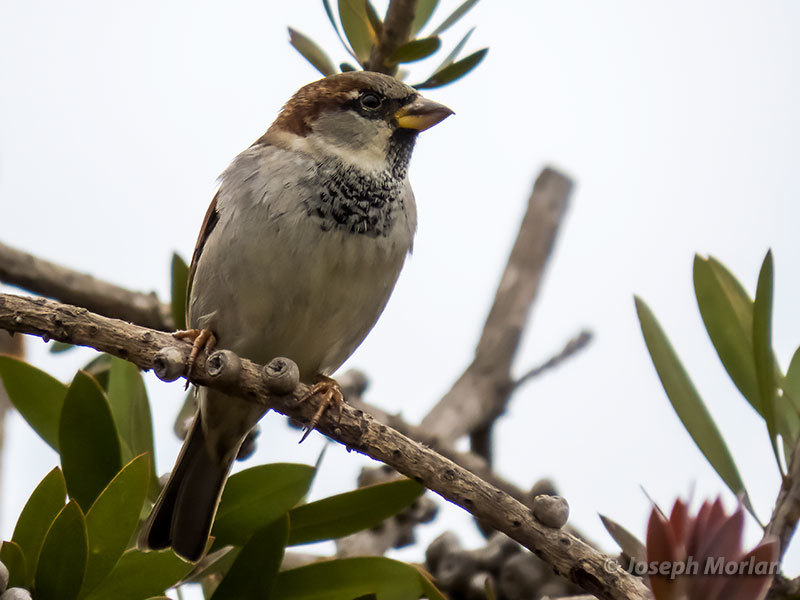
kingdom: Animalia
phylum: Chordata
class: Aves
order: Passeriformes
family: Passeridae
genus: Passer
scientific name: Passer domesticus
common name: House sparrow
